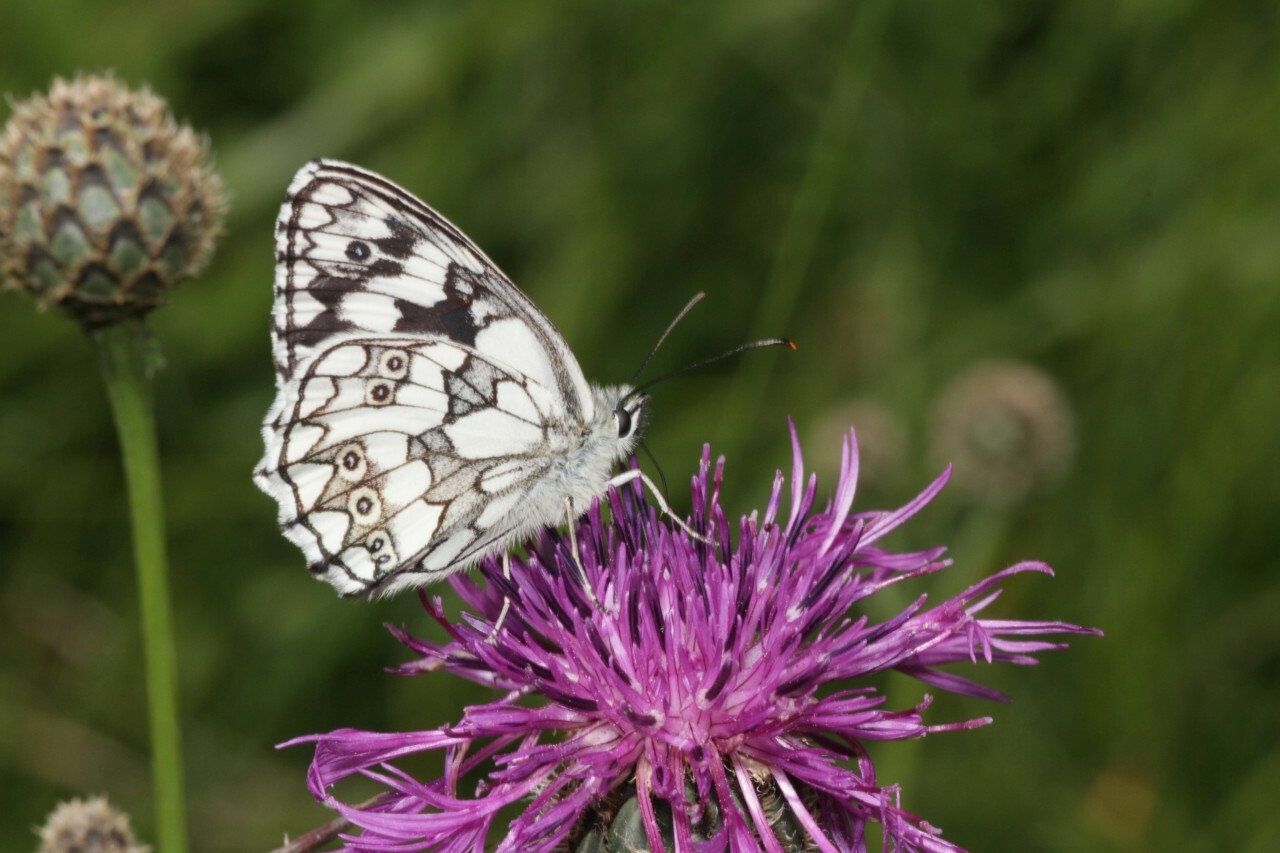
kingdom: Animalia
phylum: Arthropoda
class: Insecta
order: Lepidoptera
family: Nymphalidae
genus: Melanargia
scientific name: Melanargia galathea
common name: Marbled white
